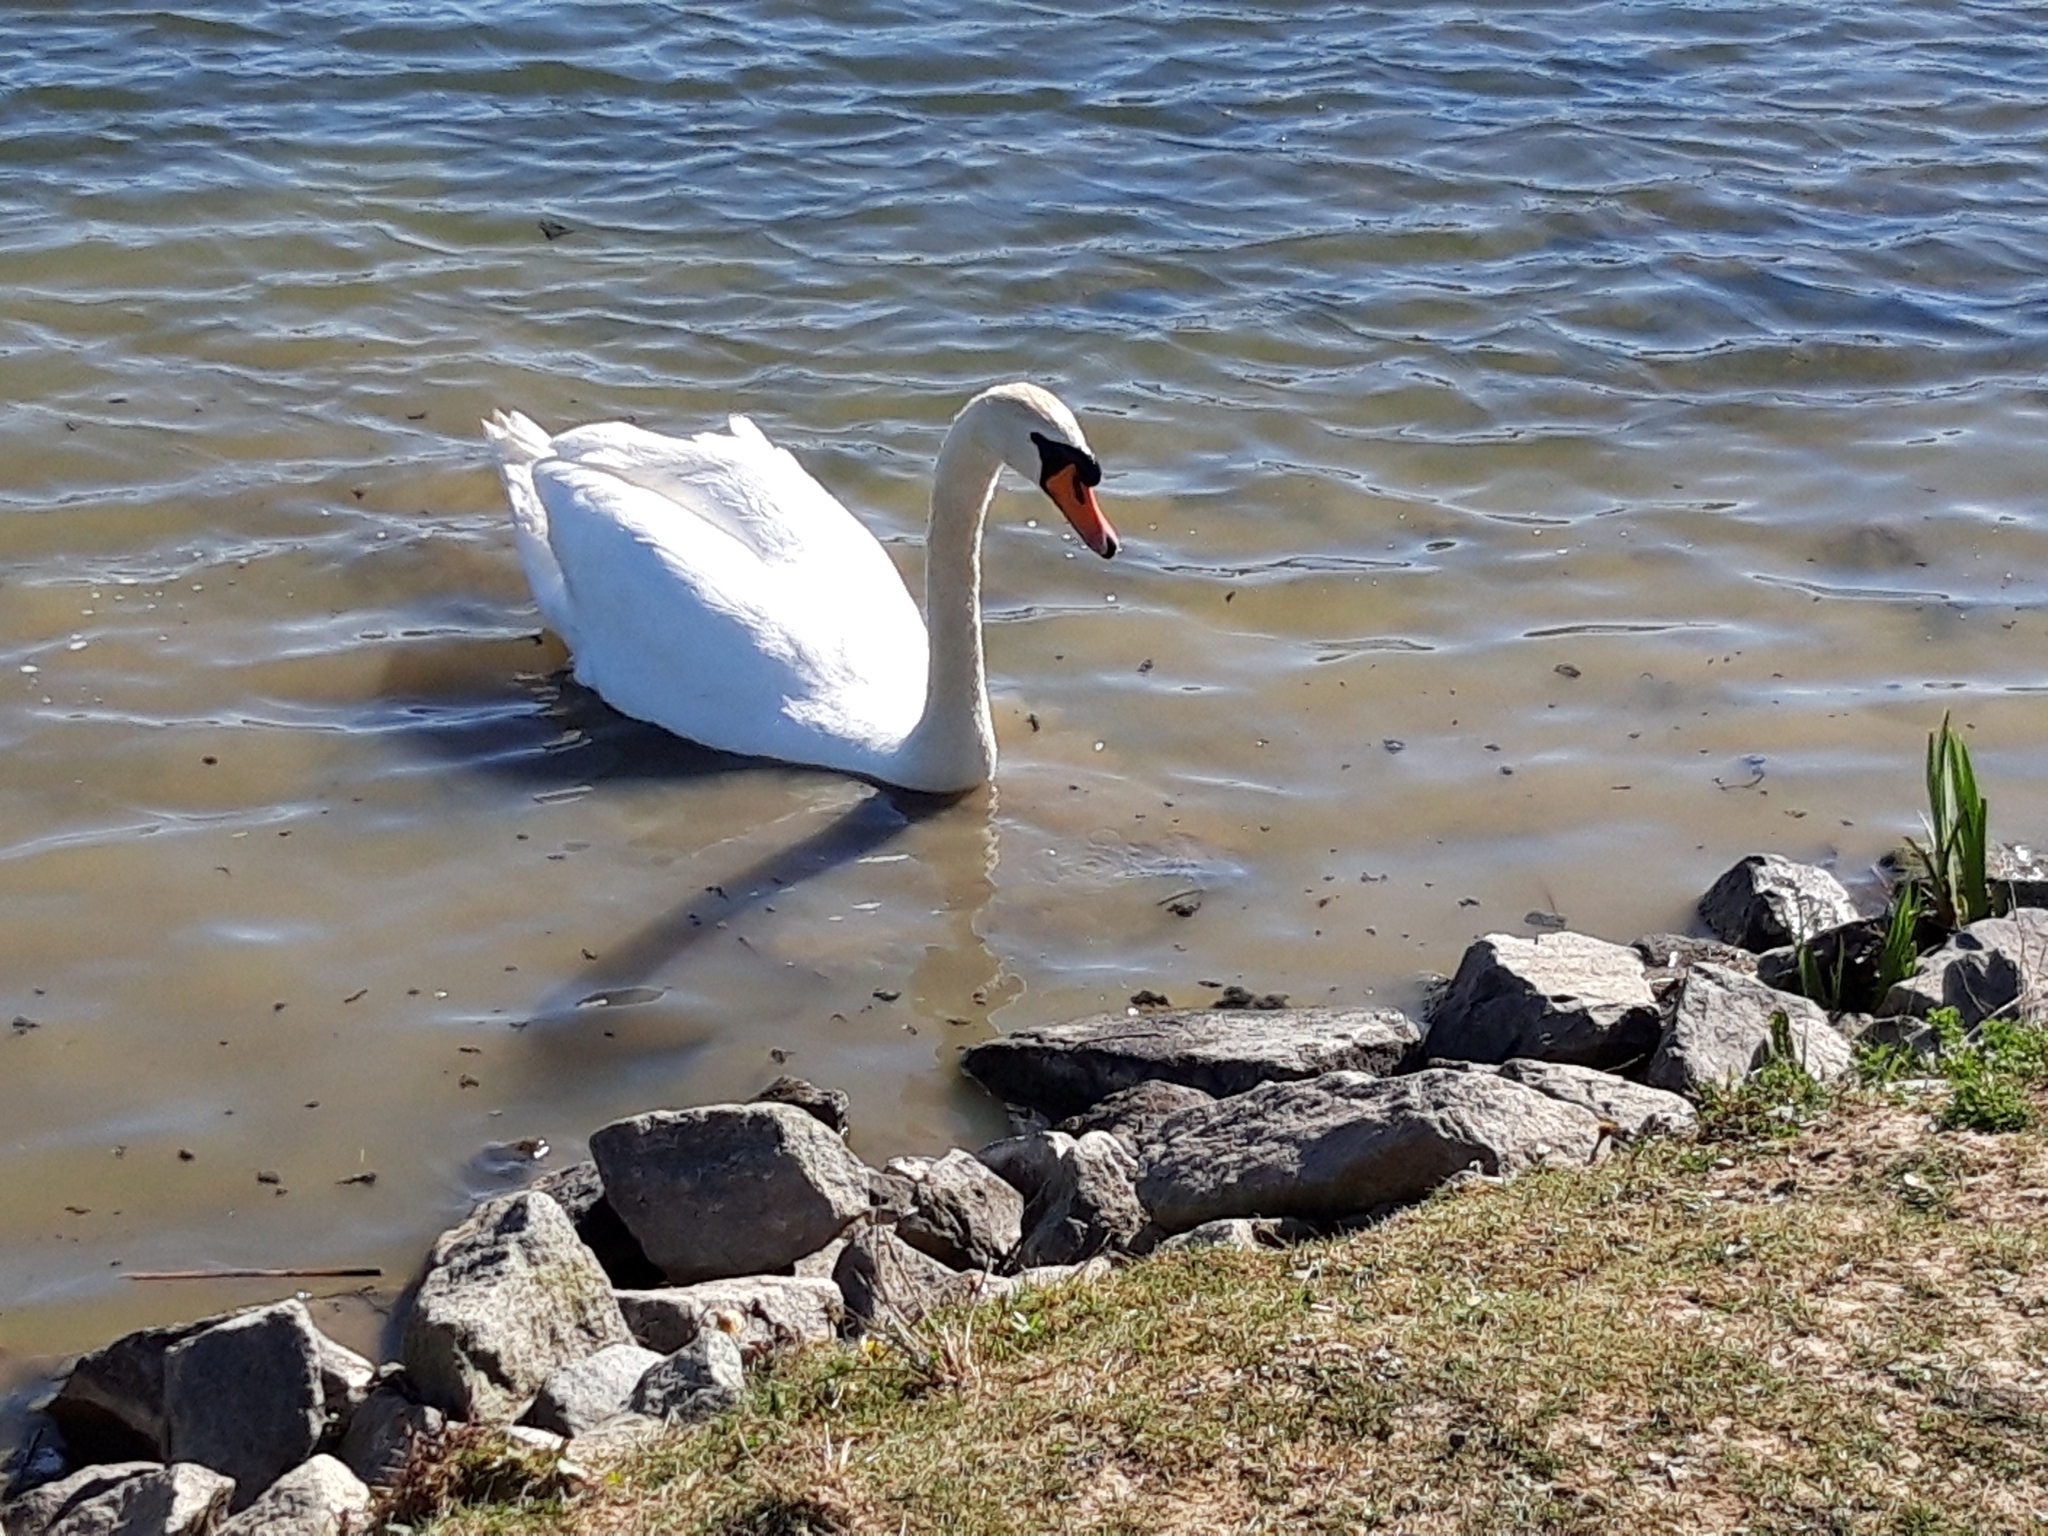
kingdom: Animalia
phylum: Chordata
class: Aves
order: Anseriformes
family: Anatidae
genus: Cygnus
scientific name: Cygnus olor
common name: Mute swan
